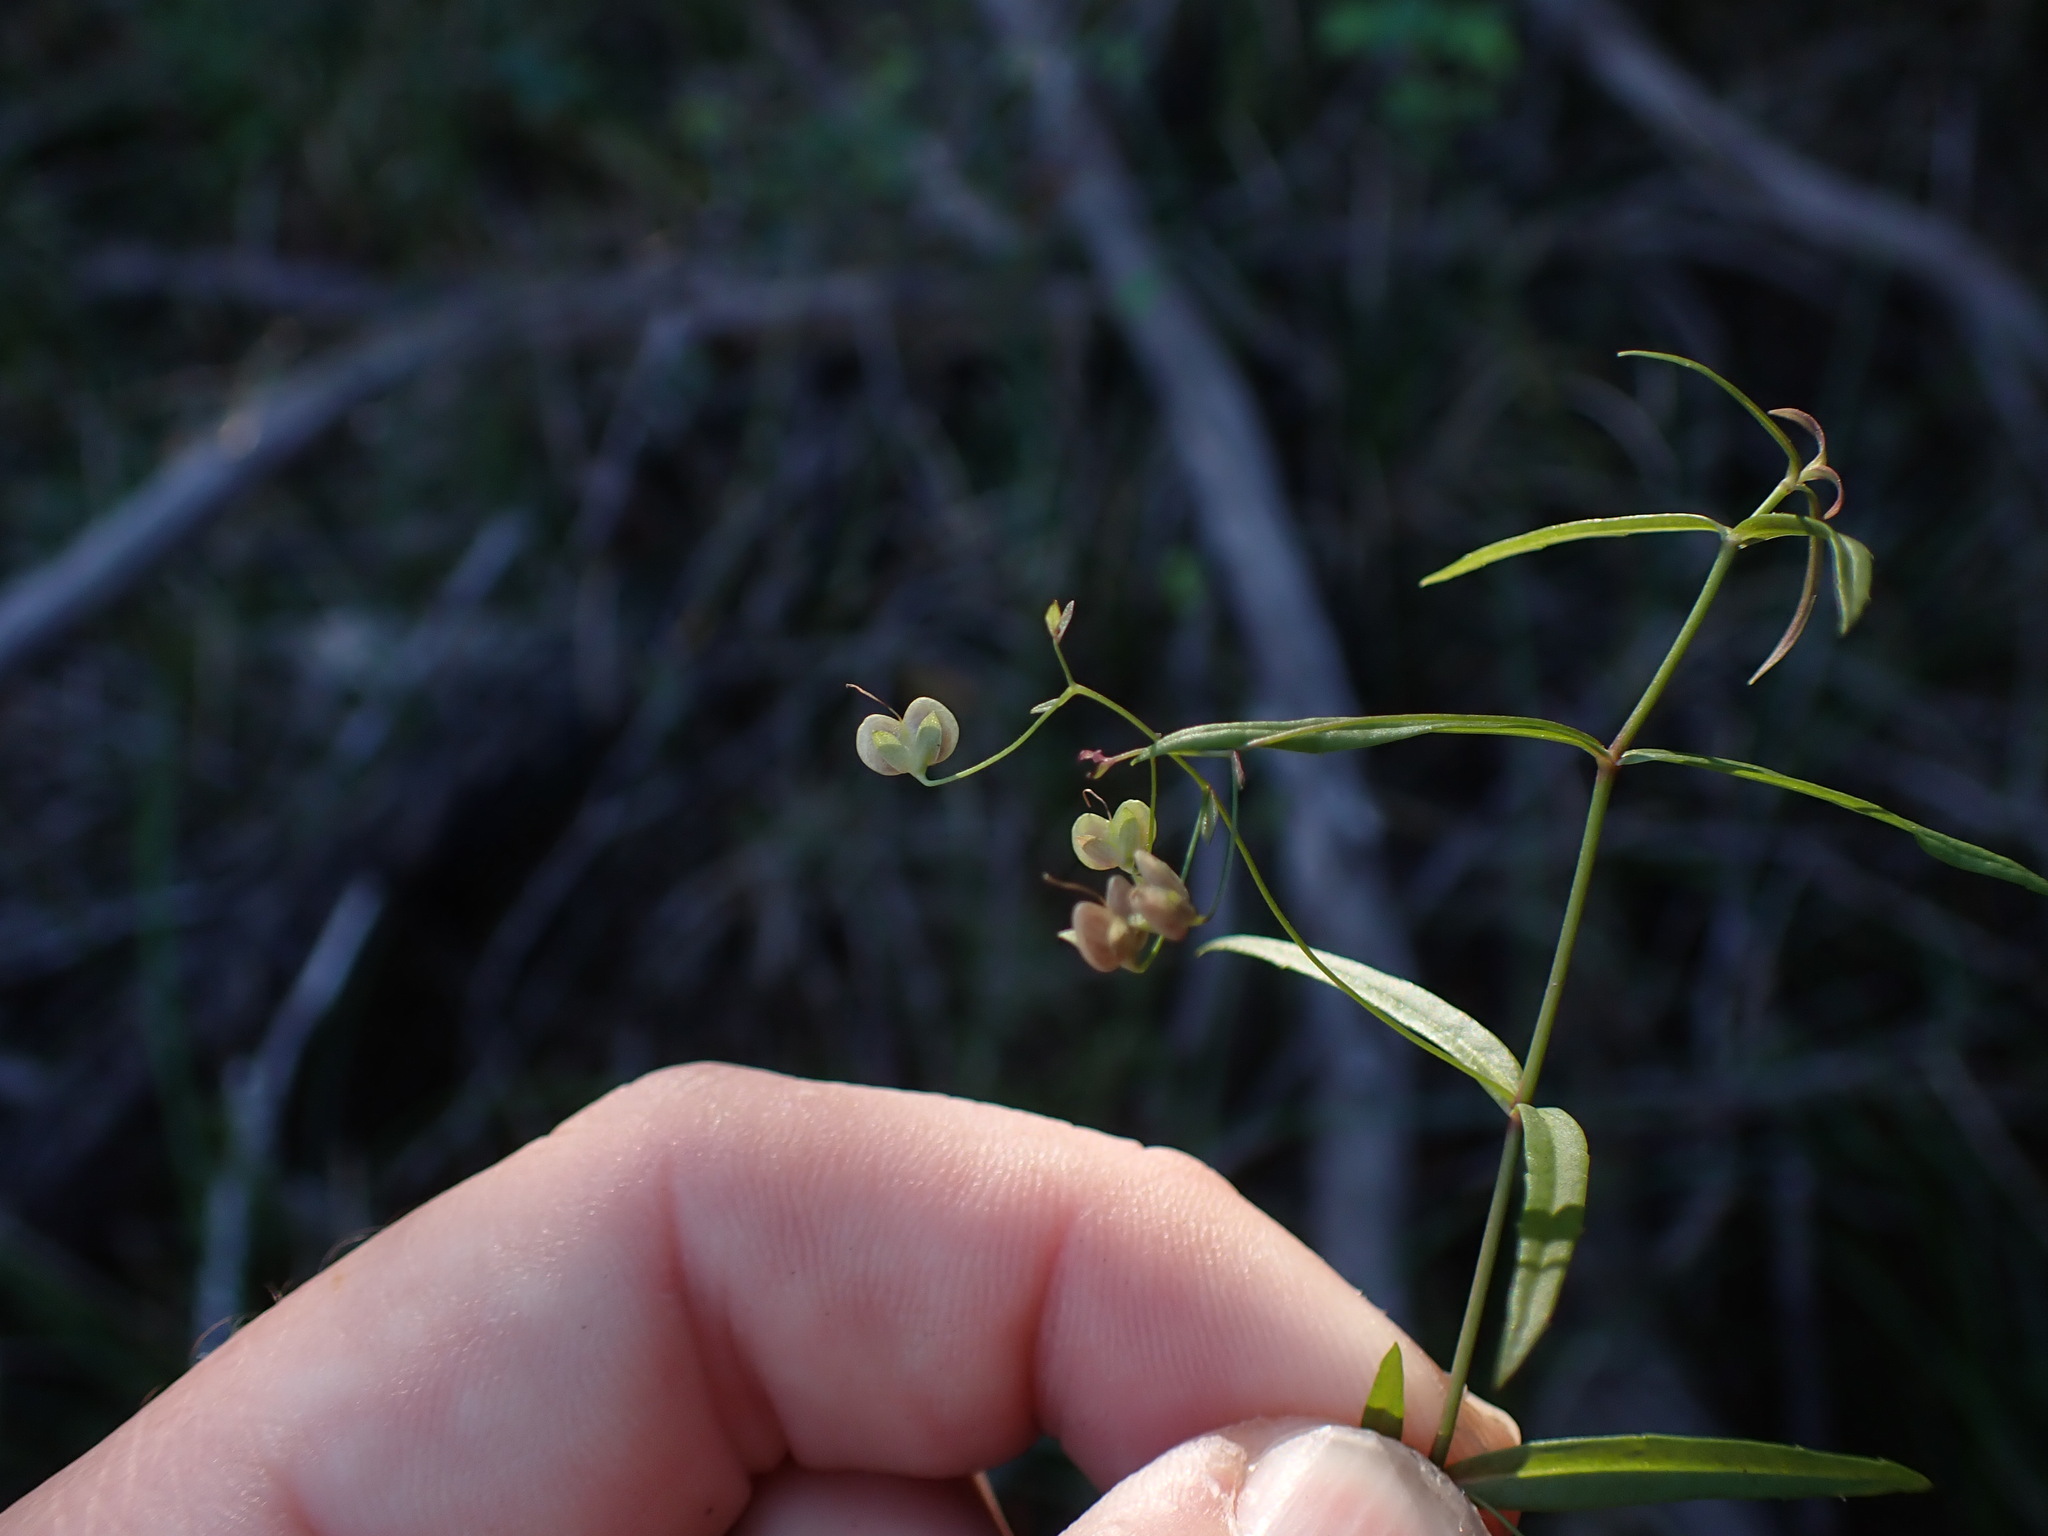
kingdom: Plantae
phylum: Tracheophyta
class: Magnoliopsida
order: Lamiales
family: Plantaginaceae
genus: Veronica
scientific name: Veronica scutellata
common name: Marsh speedwell
